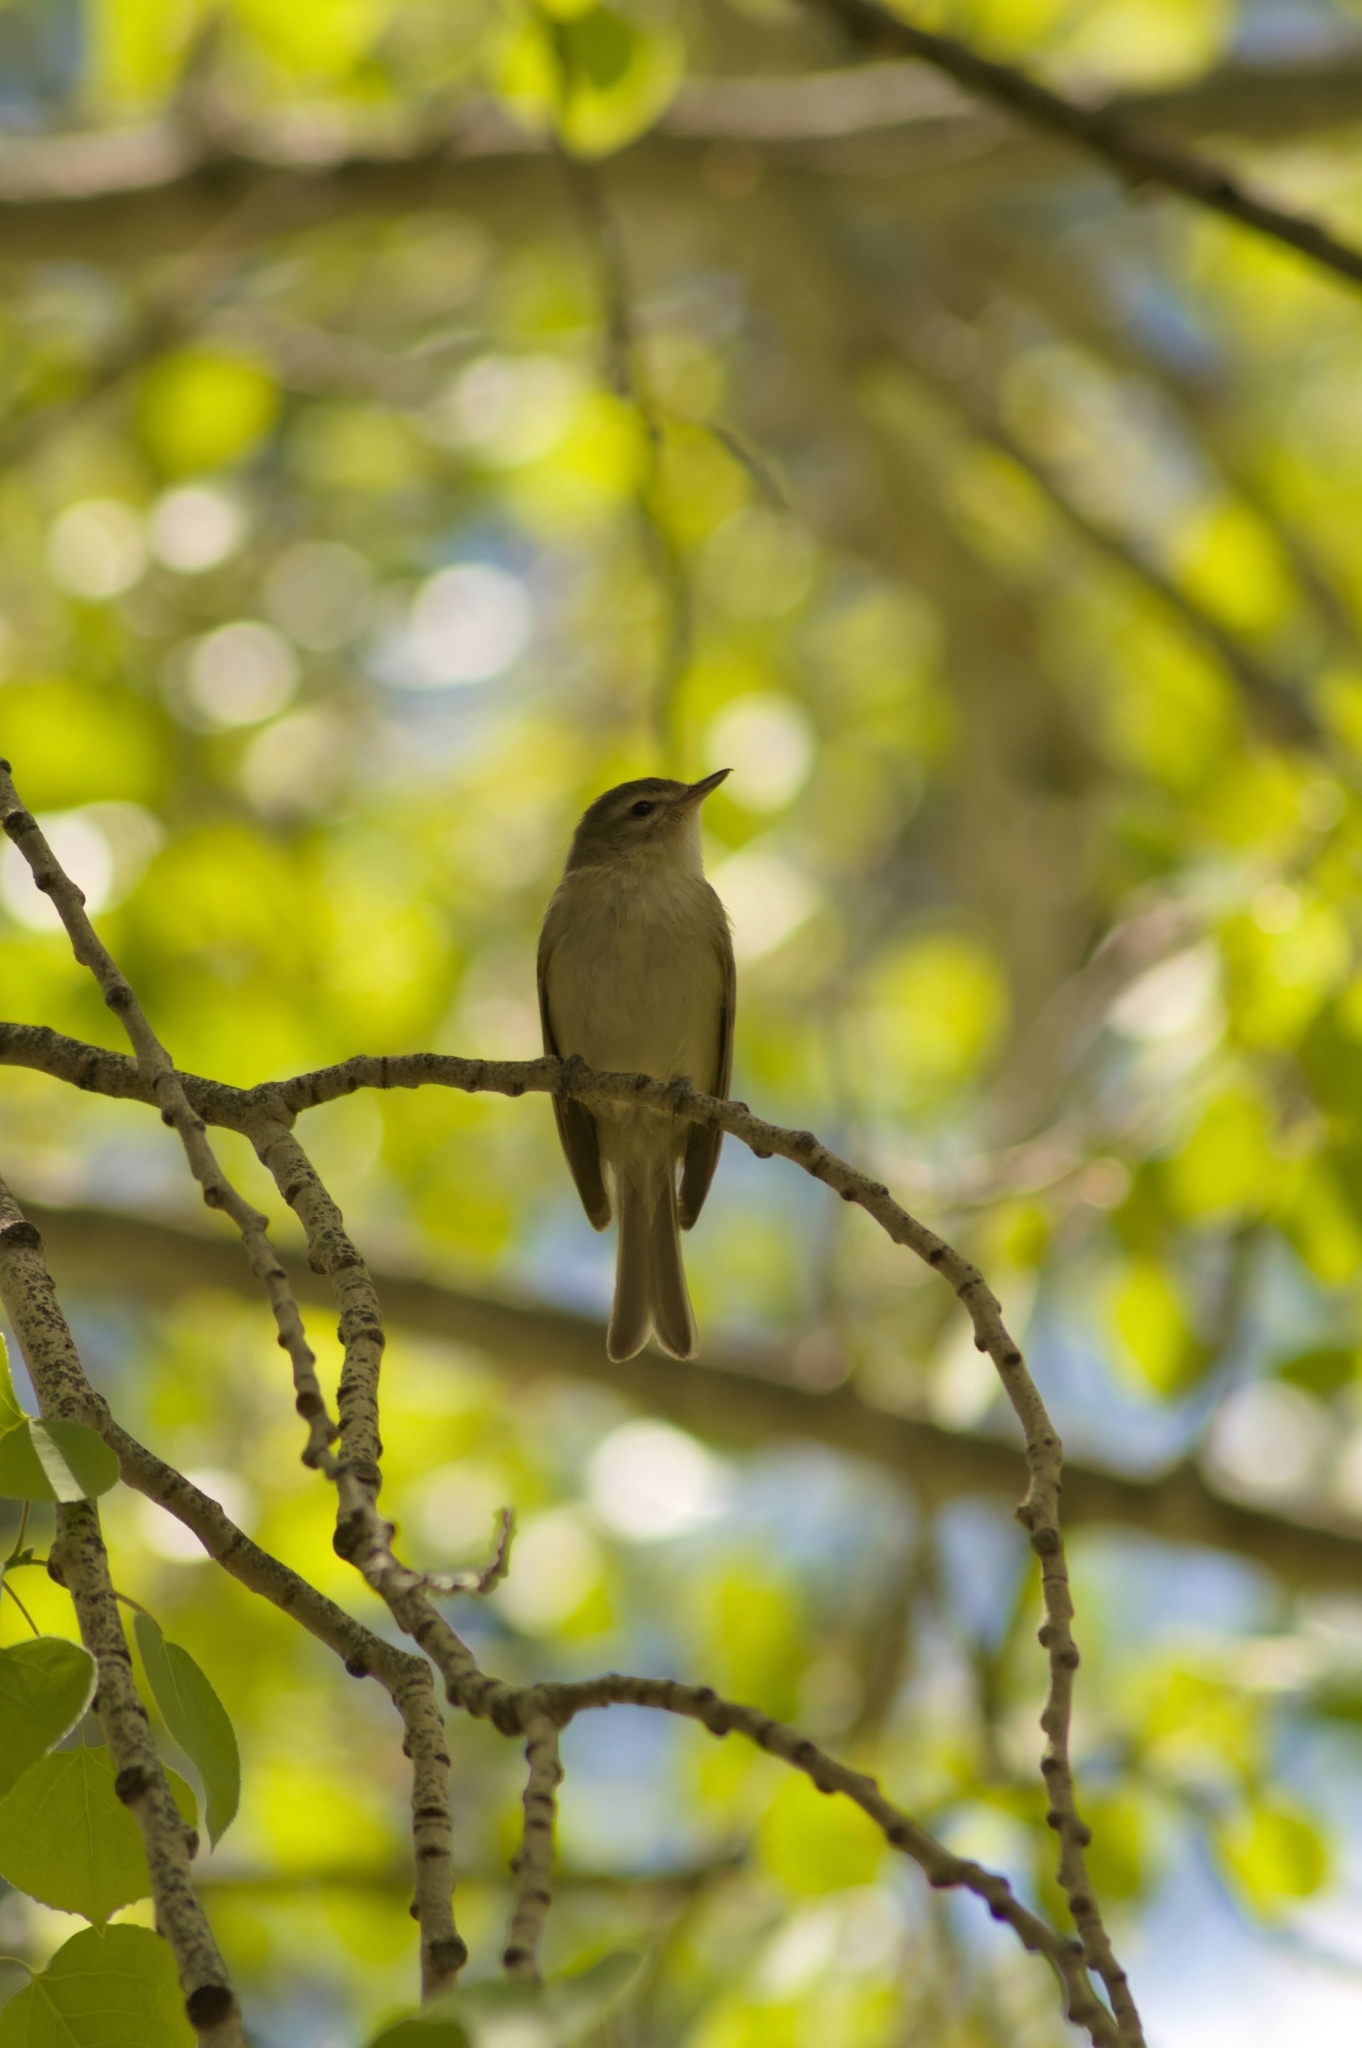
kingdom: Animalia
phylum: Chordata
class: Aves
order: Passeriformes
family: Vireonidae
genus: Vireo
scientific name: Vireo gilvus
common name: Warbling vireo
